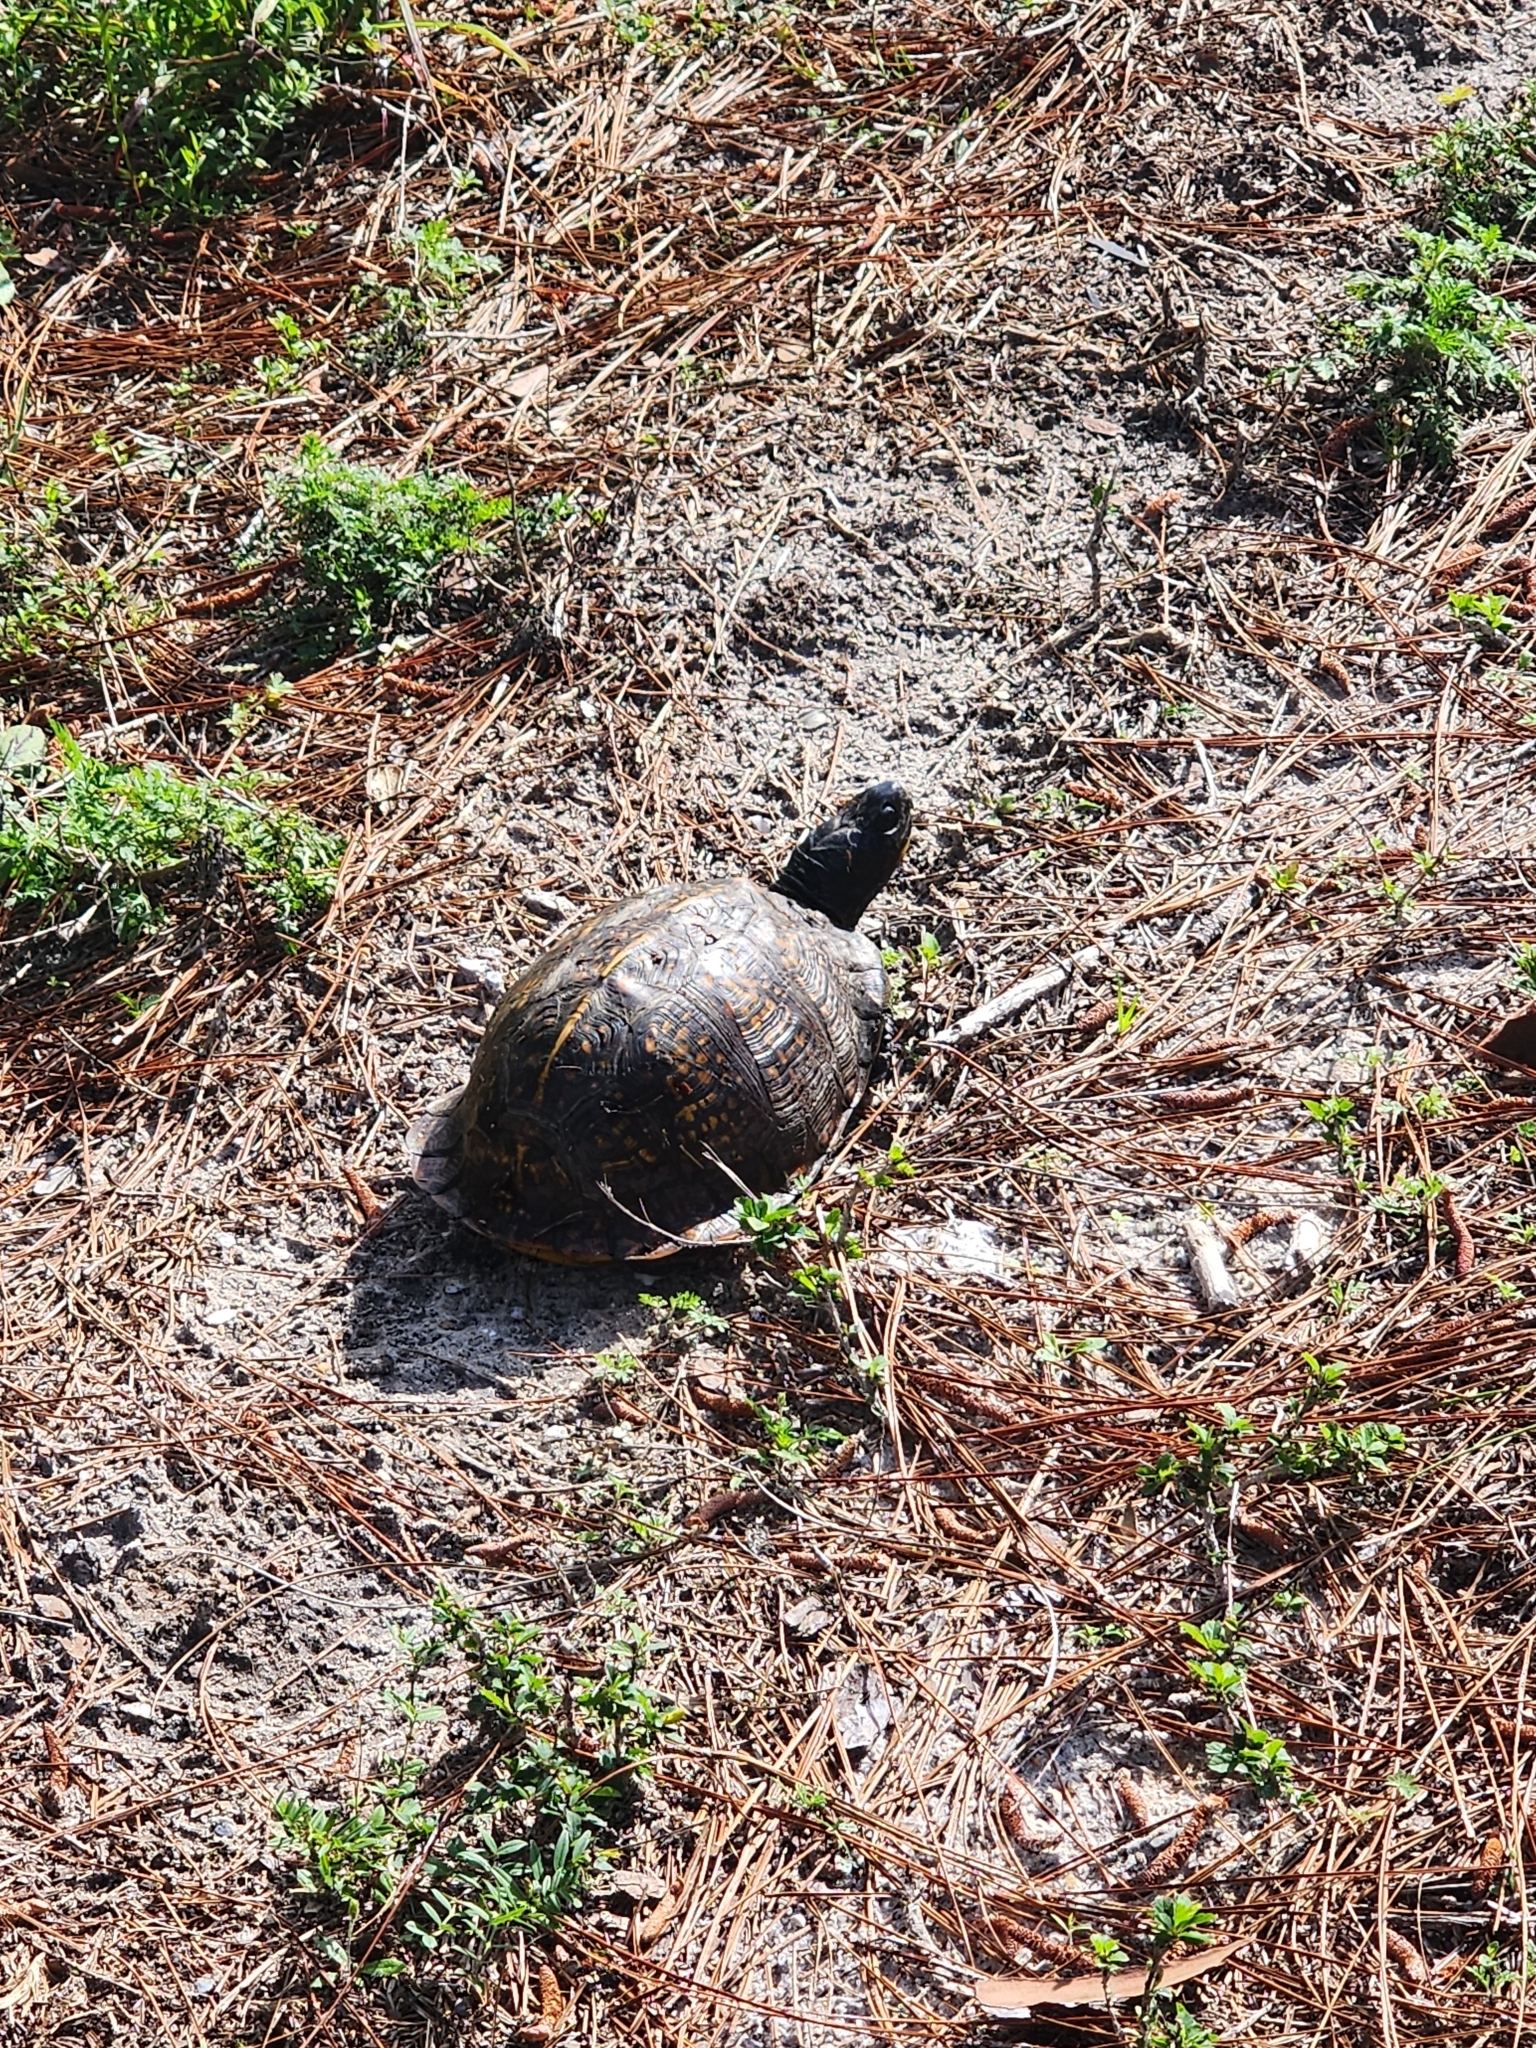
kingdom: Animalia
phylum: Chordata
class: Testudines
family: Emydidae
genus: Terrapene
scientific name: Terrapene carolina
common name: Common box turtle
